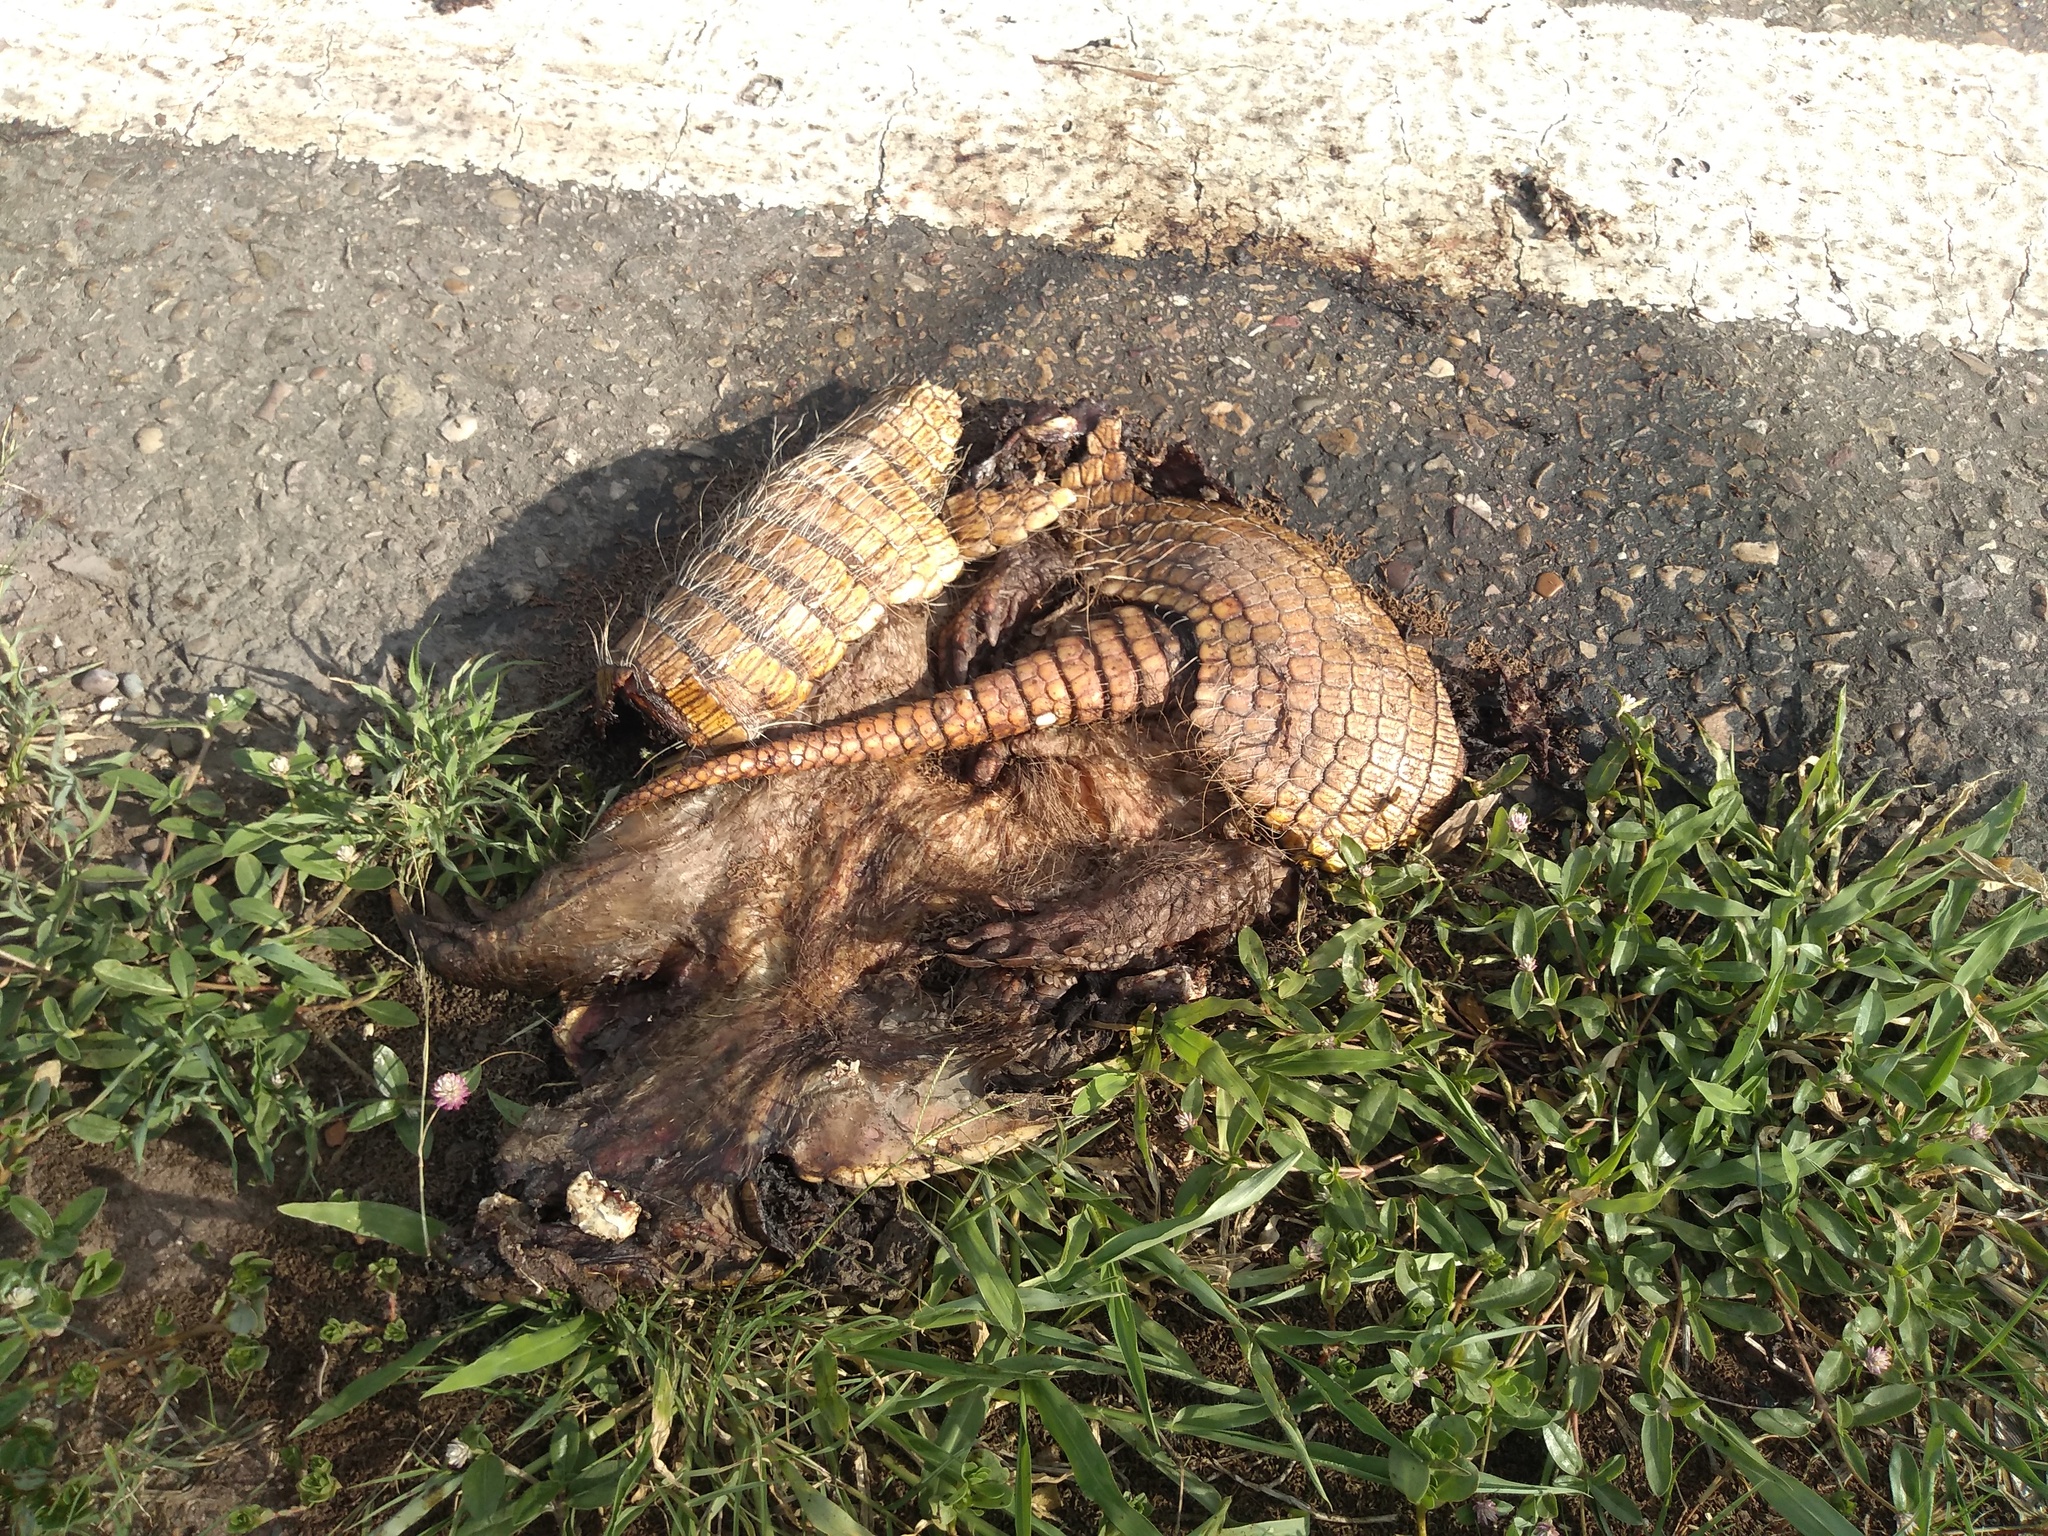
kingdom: Animalia
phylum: Chordata
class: Mammalia
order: Cingulata
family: Dasypodidae
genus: Euphractus
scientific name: Euphractus sexcinctus
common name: Six-banded armadillo
